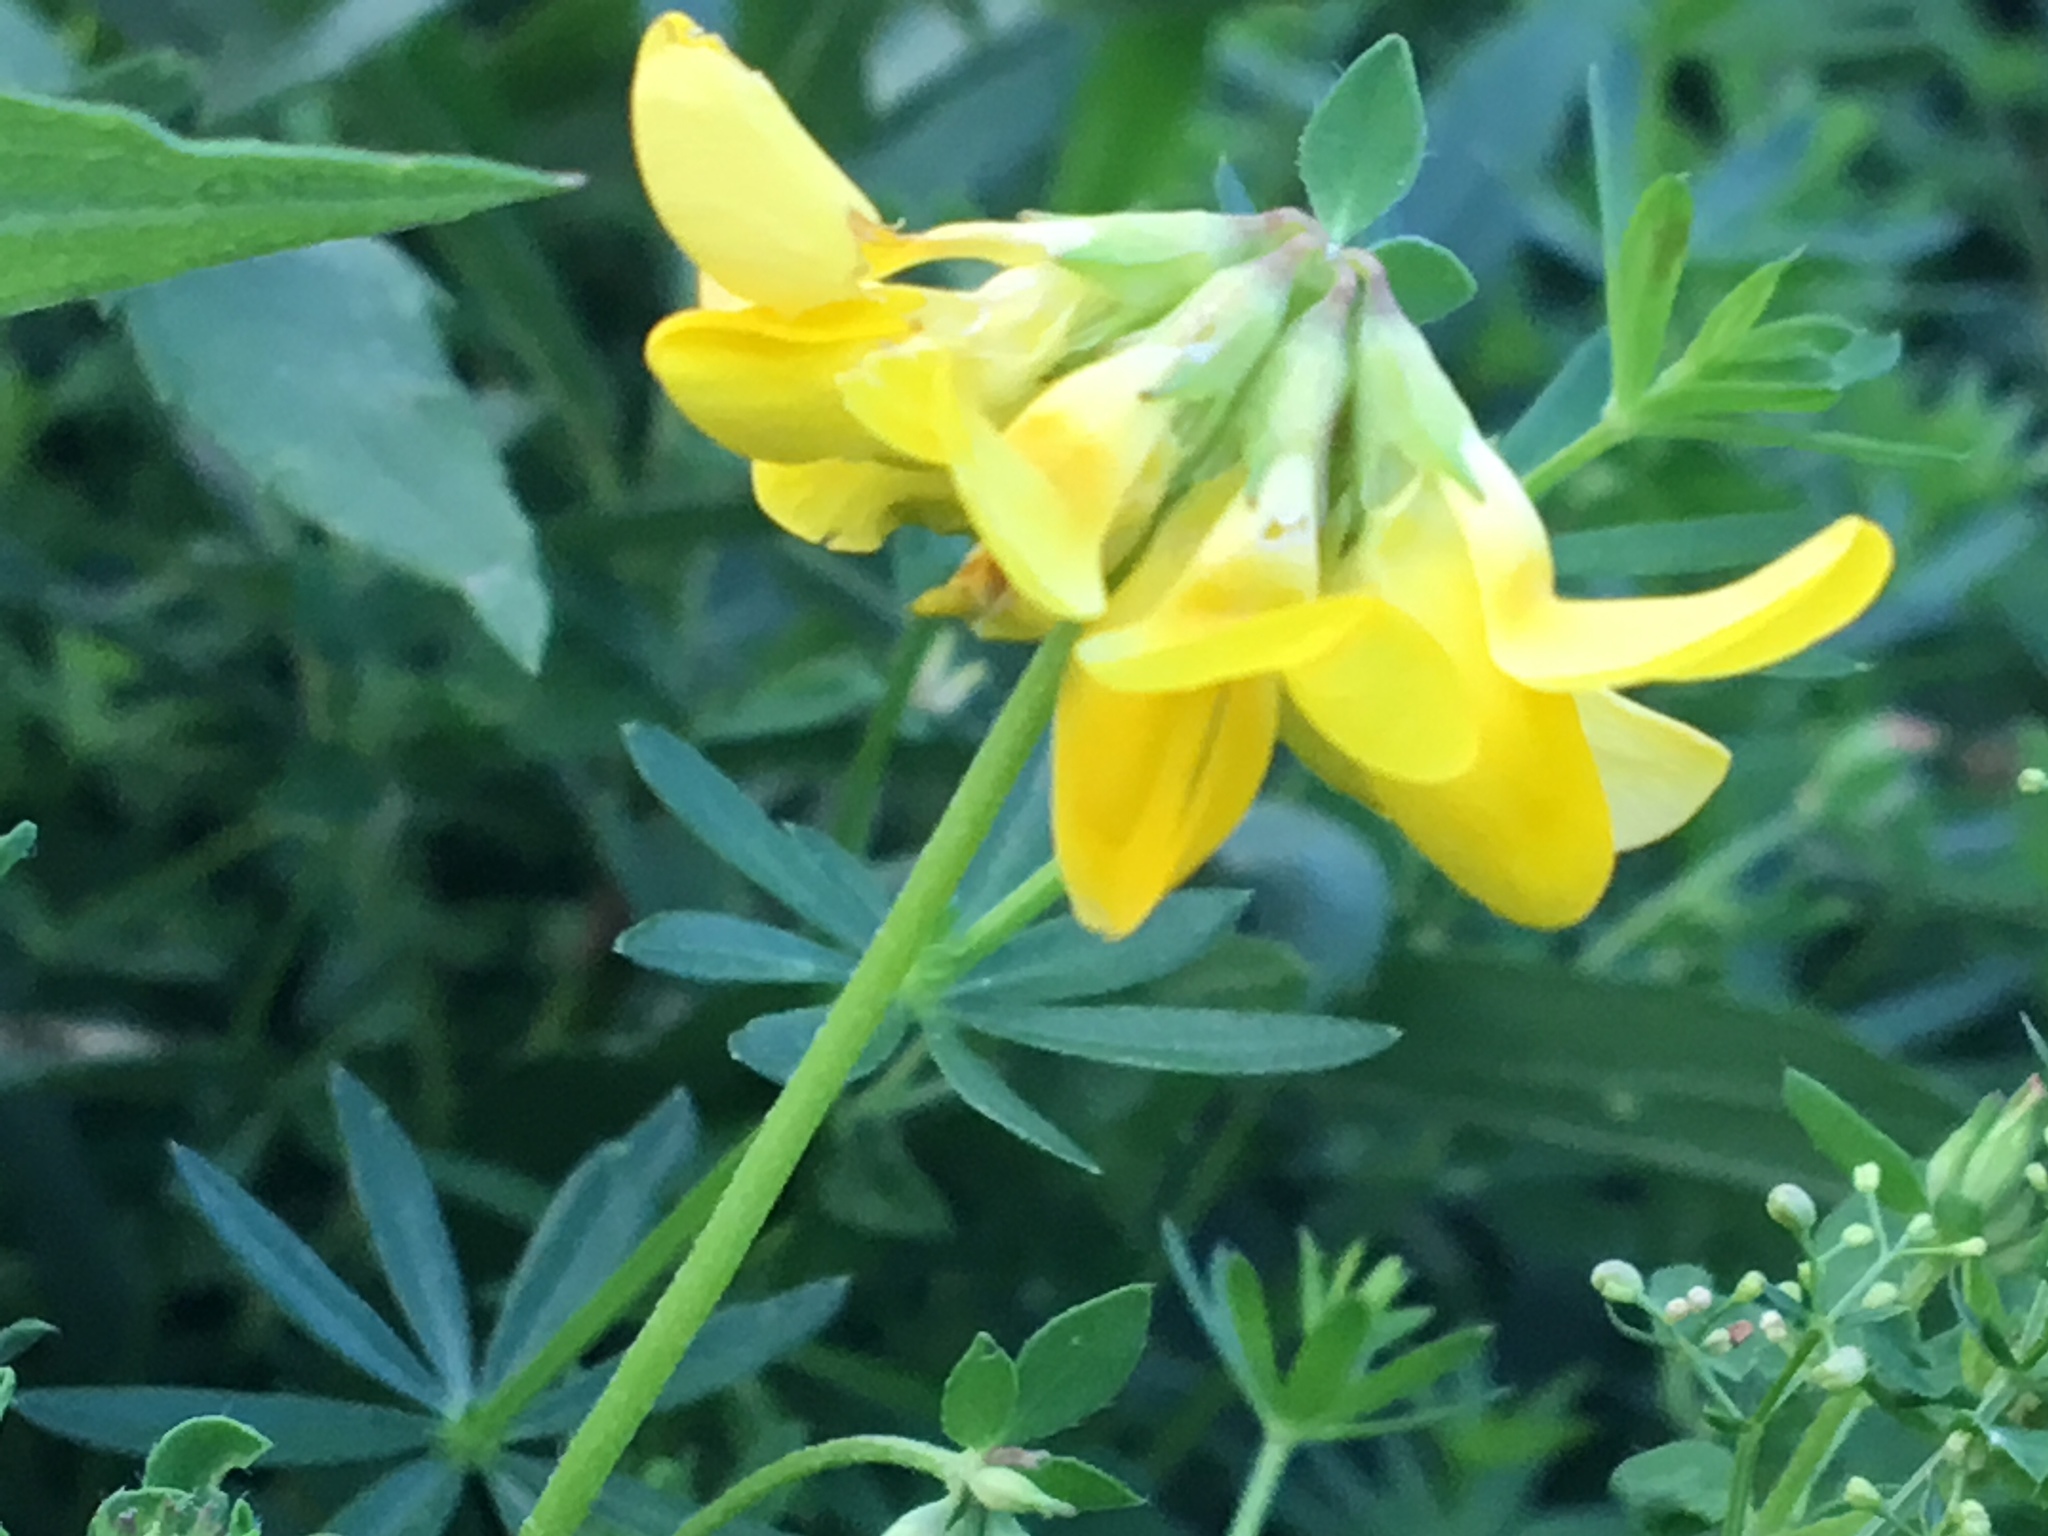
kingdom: Plantae
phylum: Tracheophyta
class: Magnoliopsida
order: Fabales
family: Fabaceae
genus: Lotus
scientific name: Lotus corniculatus
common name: Common bird's-foot-trefoil
